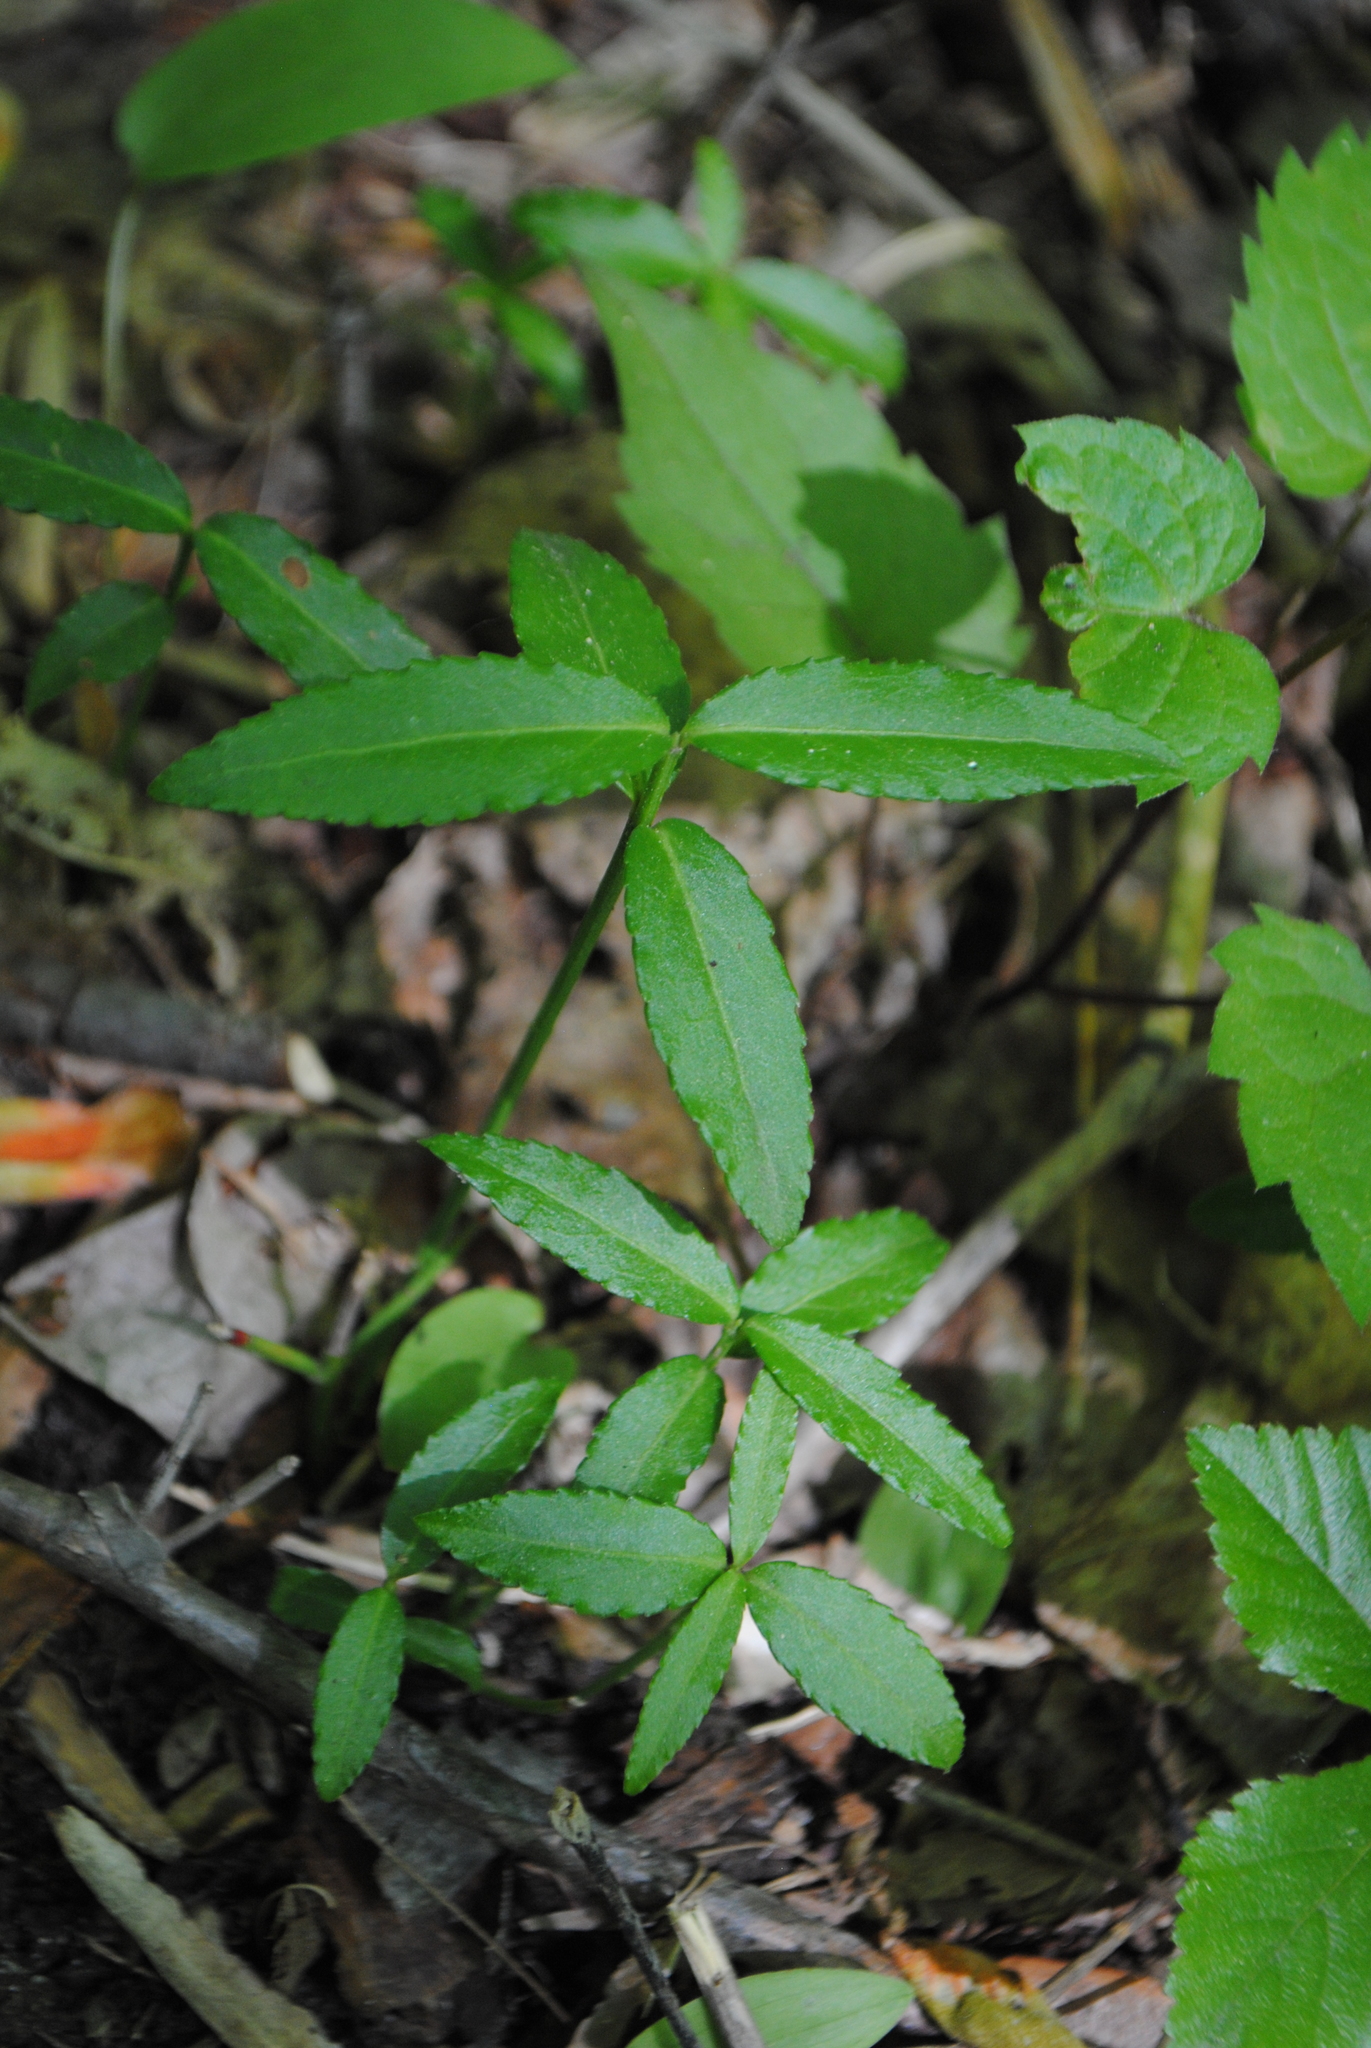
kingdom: Plantae
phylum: Tracheophyta
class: Magnoliopsida
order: Celastrales
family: Celastraceae
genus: Euonymus
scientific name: Euonymus americanus
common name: Bursting-heart
